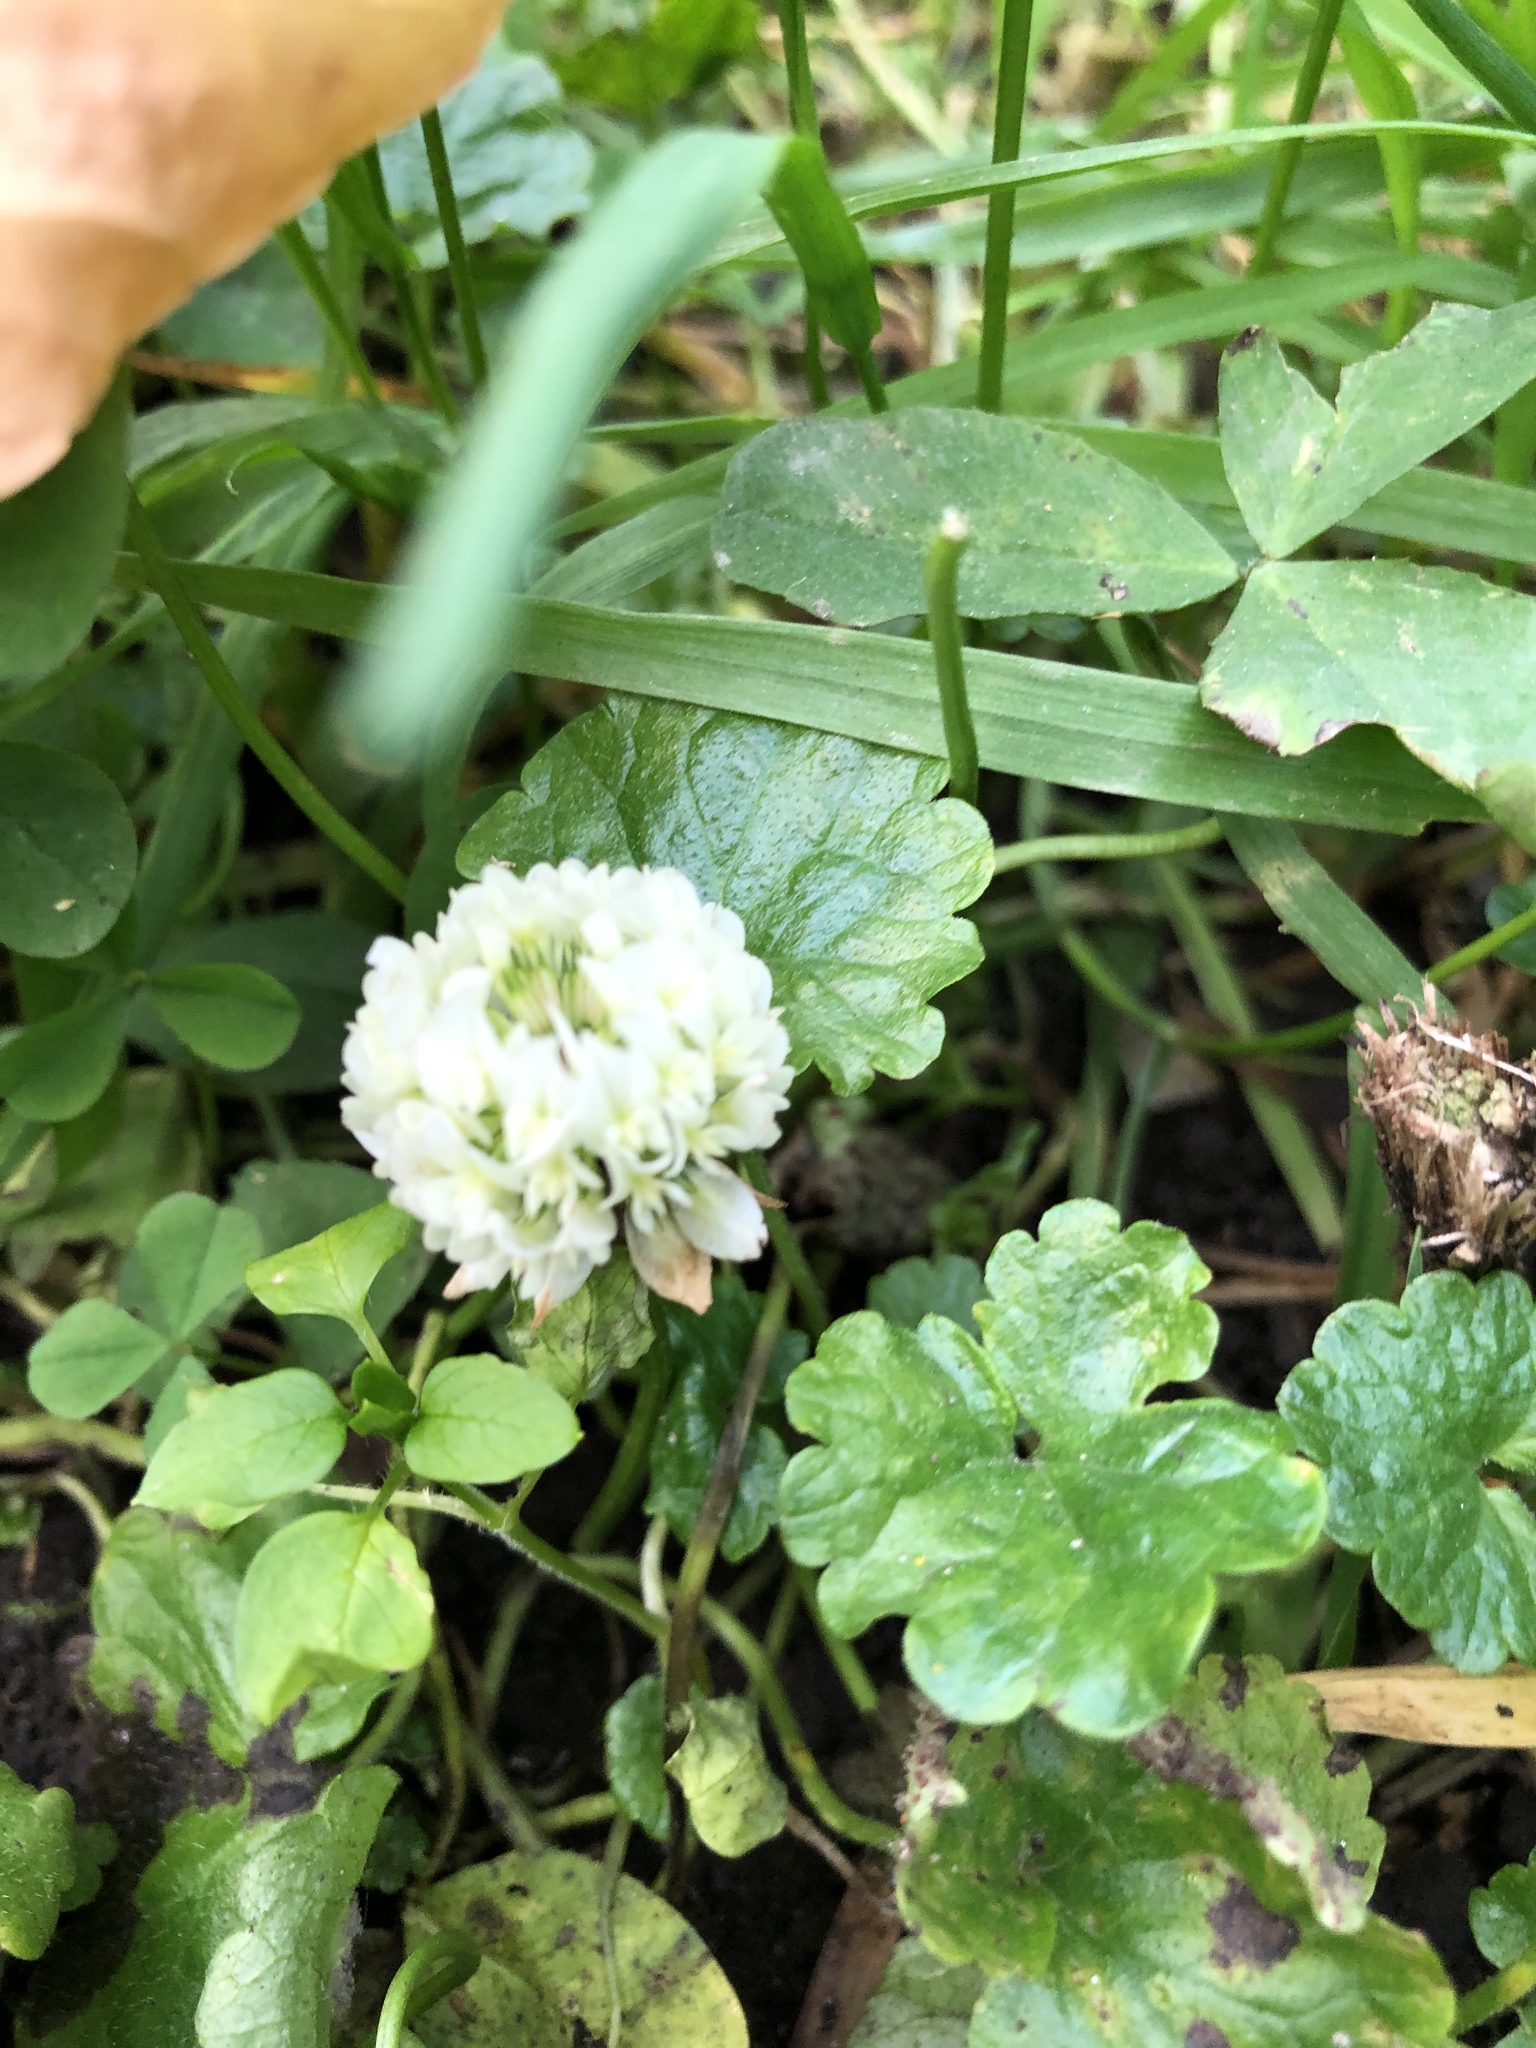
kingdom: Plantae
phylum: Tracheophyta
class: Magnoliopsida
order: Fabales
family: Fabaceae
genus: Trifolium
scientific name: Trifolium repens
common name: White clover
